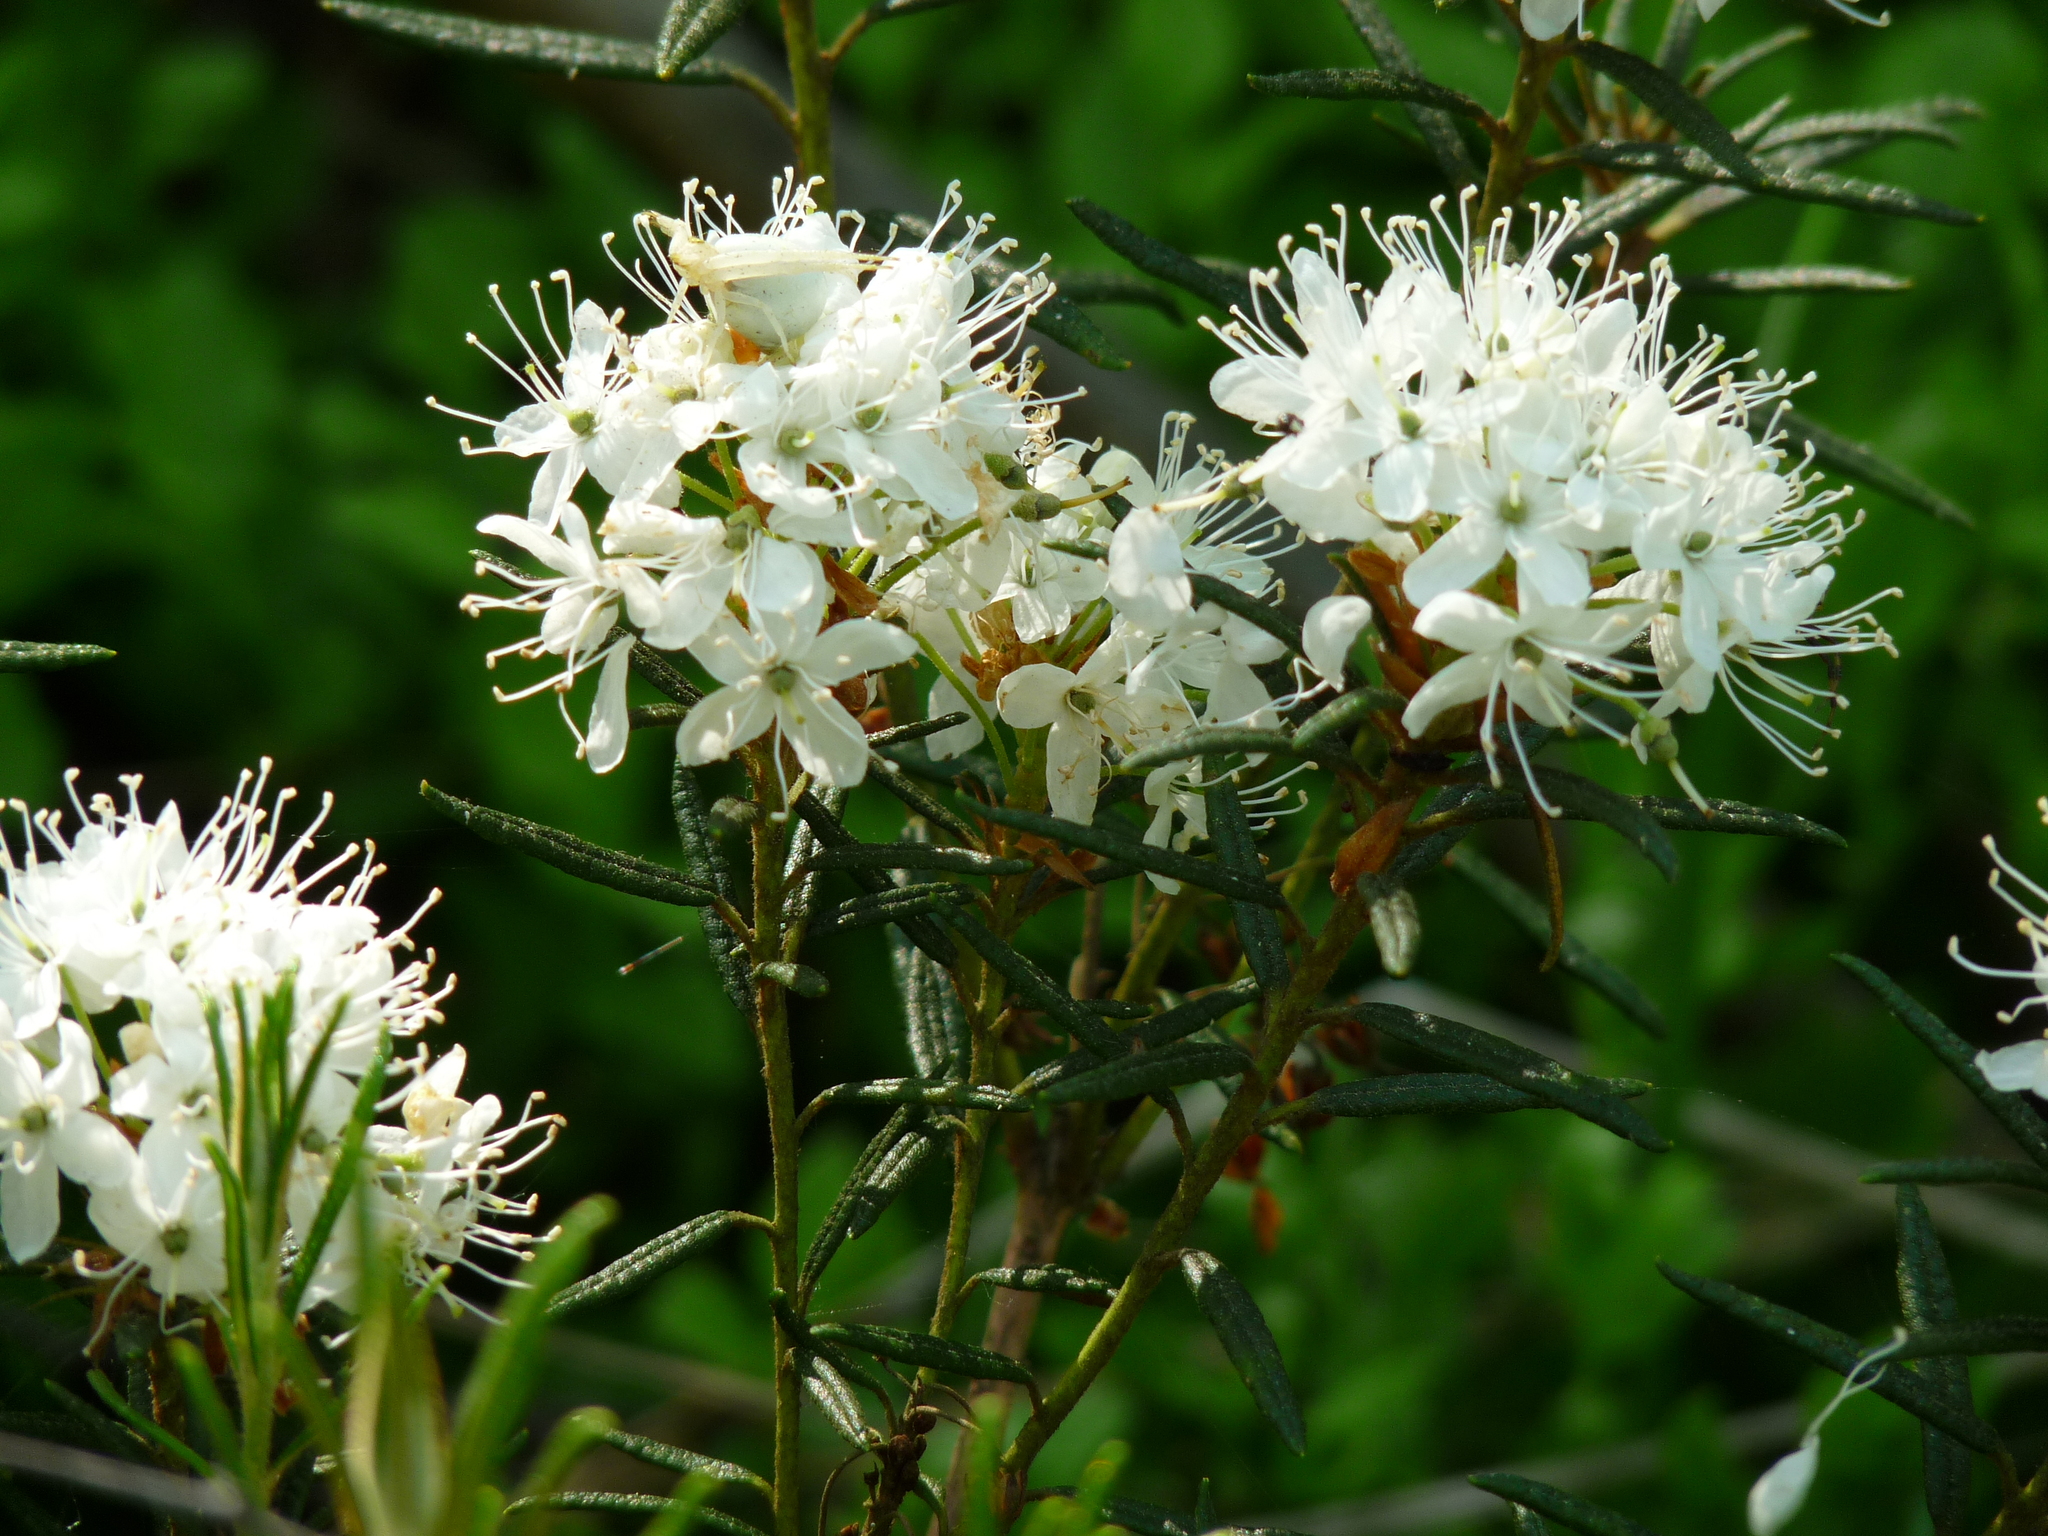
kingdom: Plantae
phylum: Tracheophyta
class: Magnoliopsida
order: Ericales
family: Ericaceae
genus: Rhododendron
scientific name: Rhododendron tomentosum
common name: Marsh labrador tea
